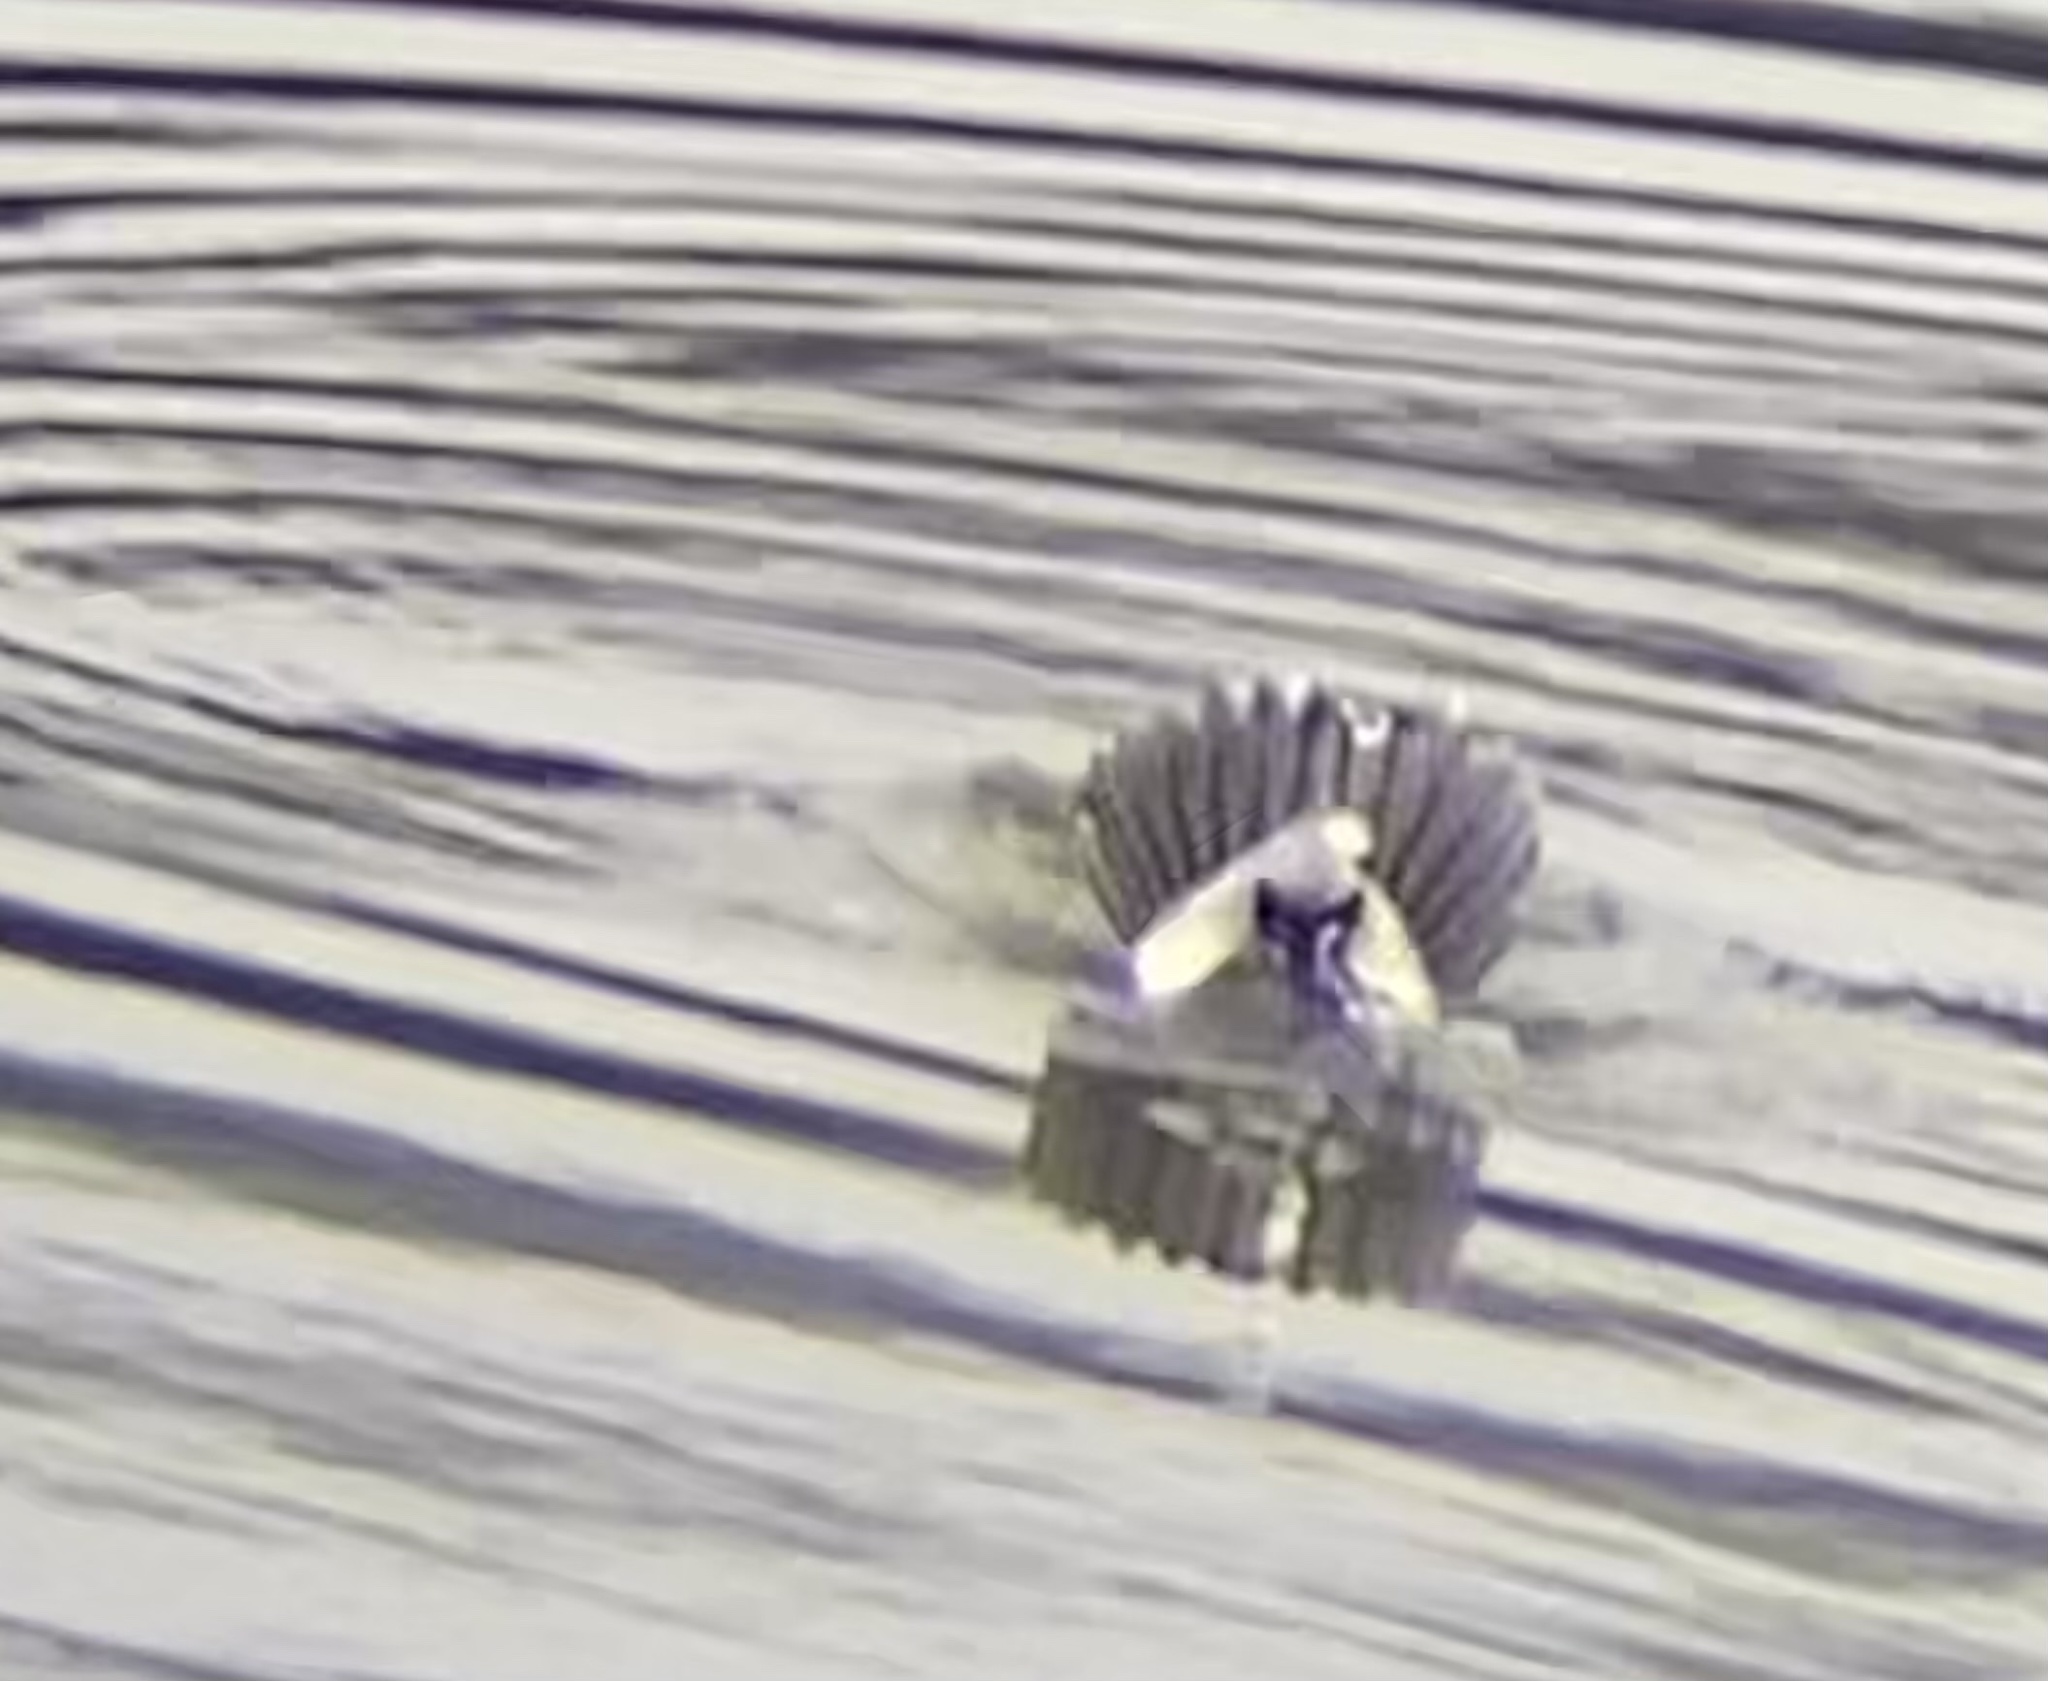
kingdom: Animalia
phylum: Chordata
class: Aves
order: Anseriformes
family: Anatidae
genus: Bucephala
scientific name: Bucephala albeola
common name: Bufflehead
